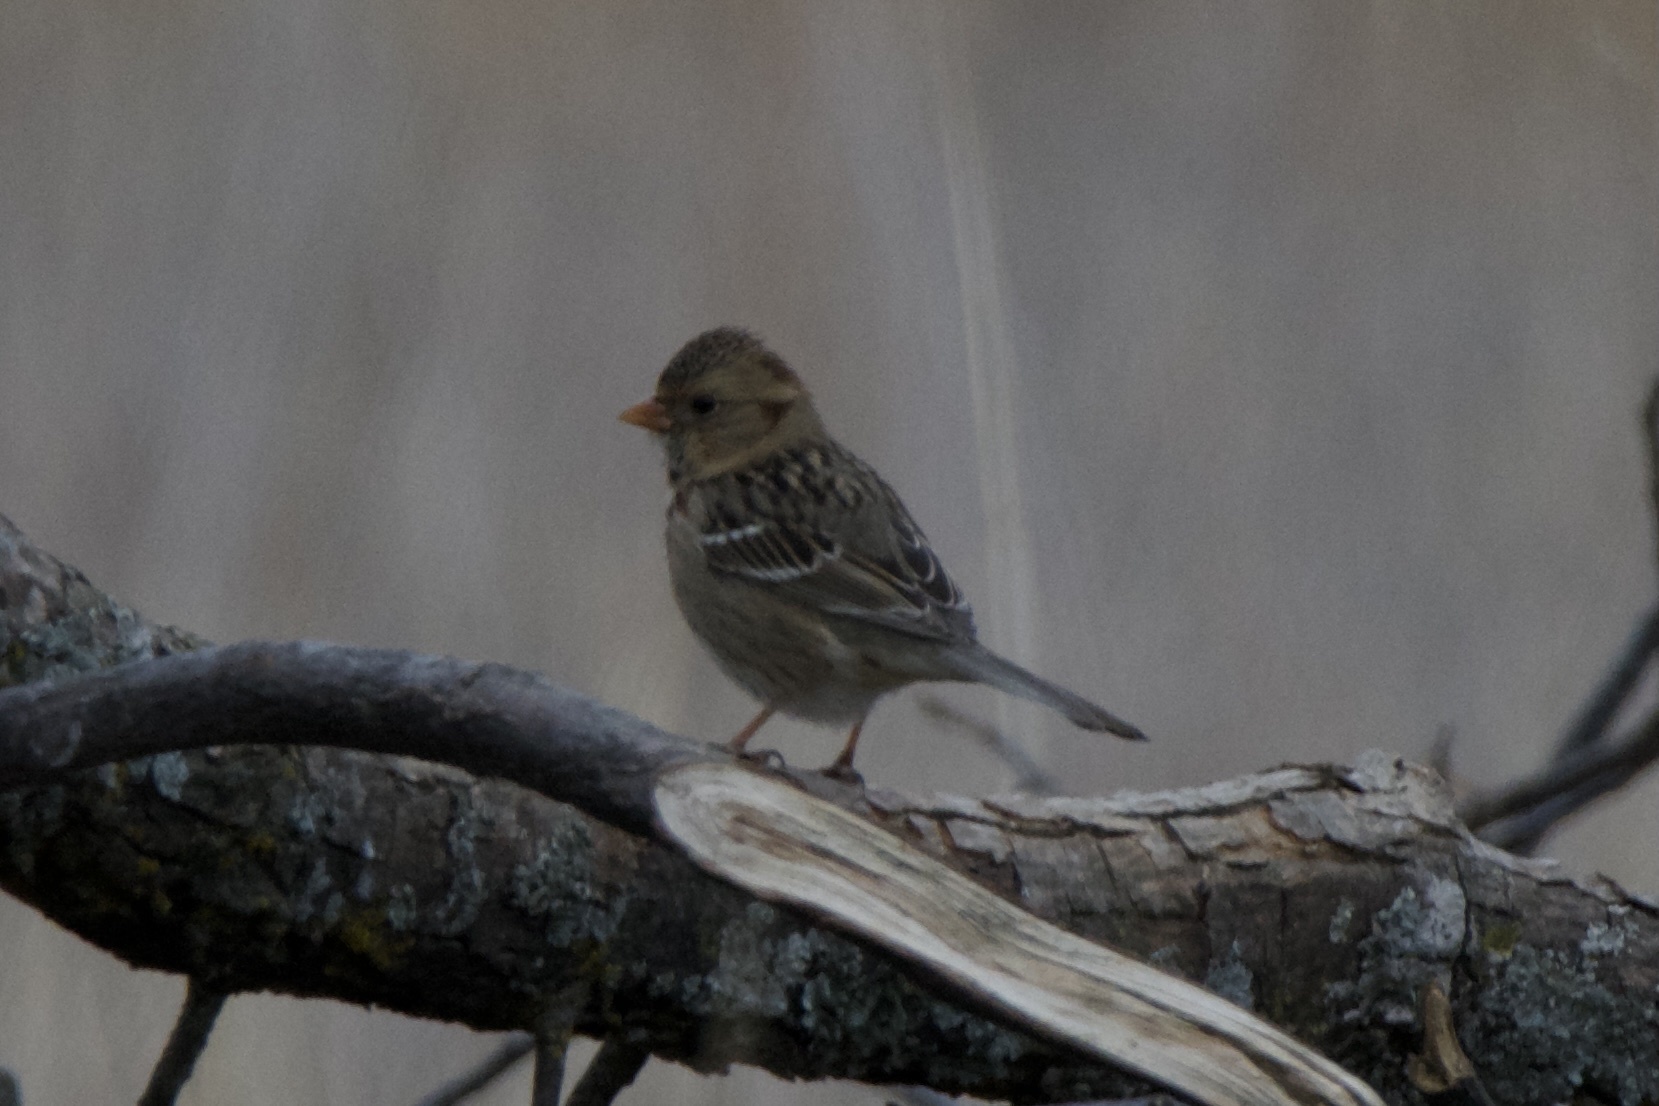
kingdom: Animalia
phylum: Chordata
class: Aves
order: Passeriformes
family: Passerellidae
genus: Zonotrichia
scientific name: Zonotrichia querula
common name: Harris's sparrow
